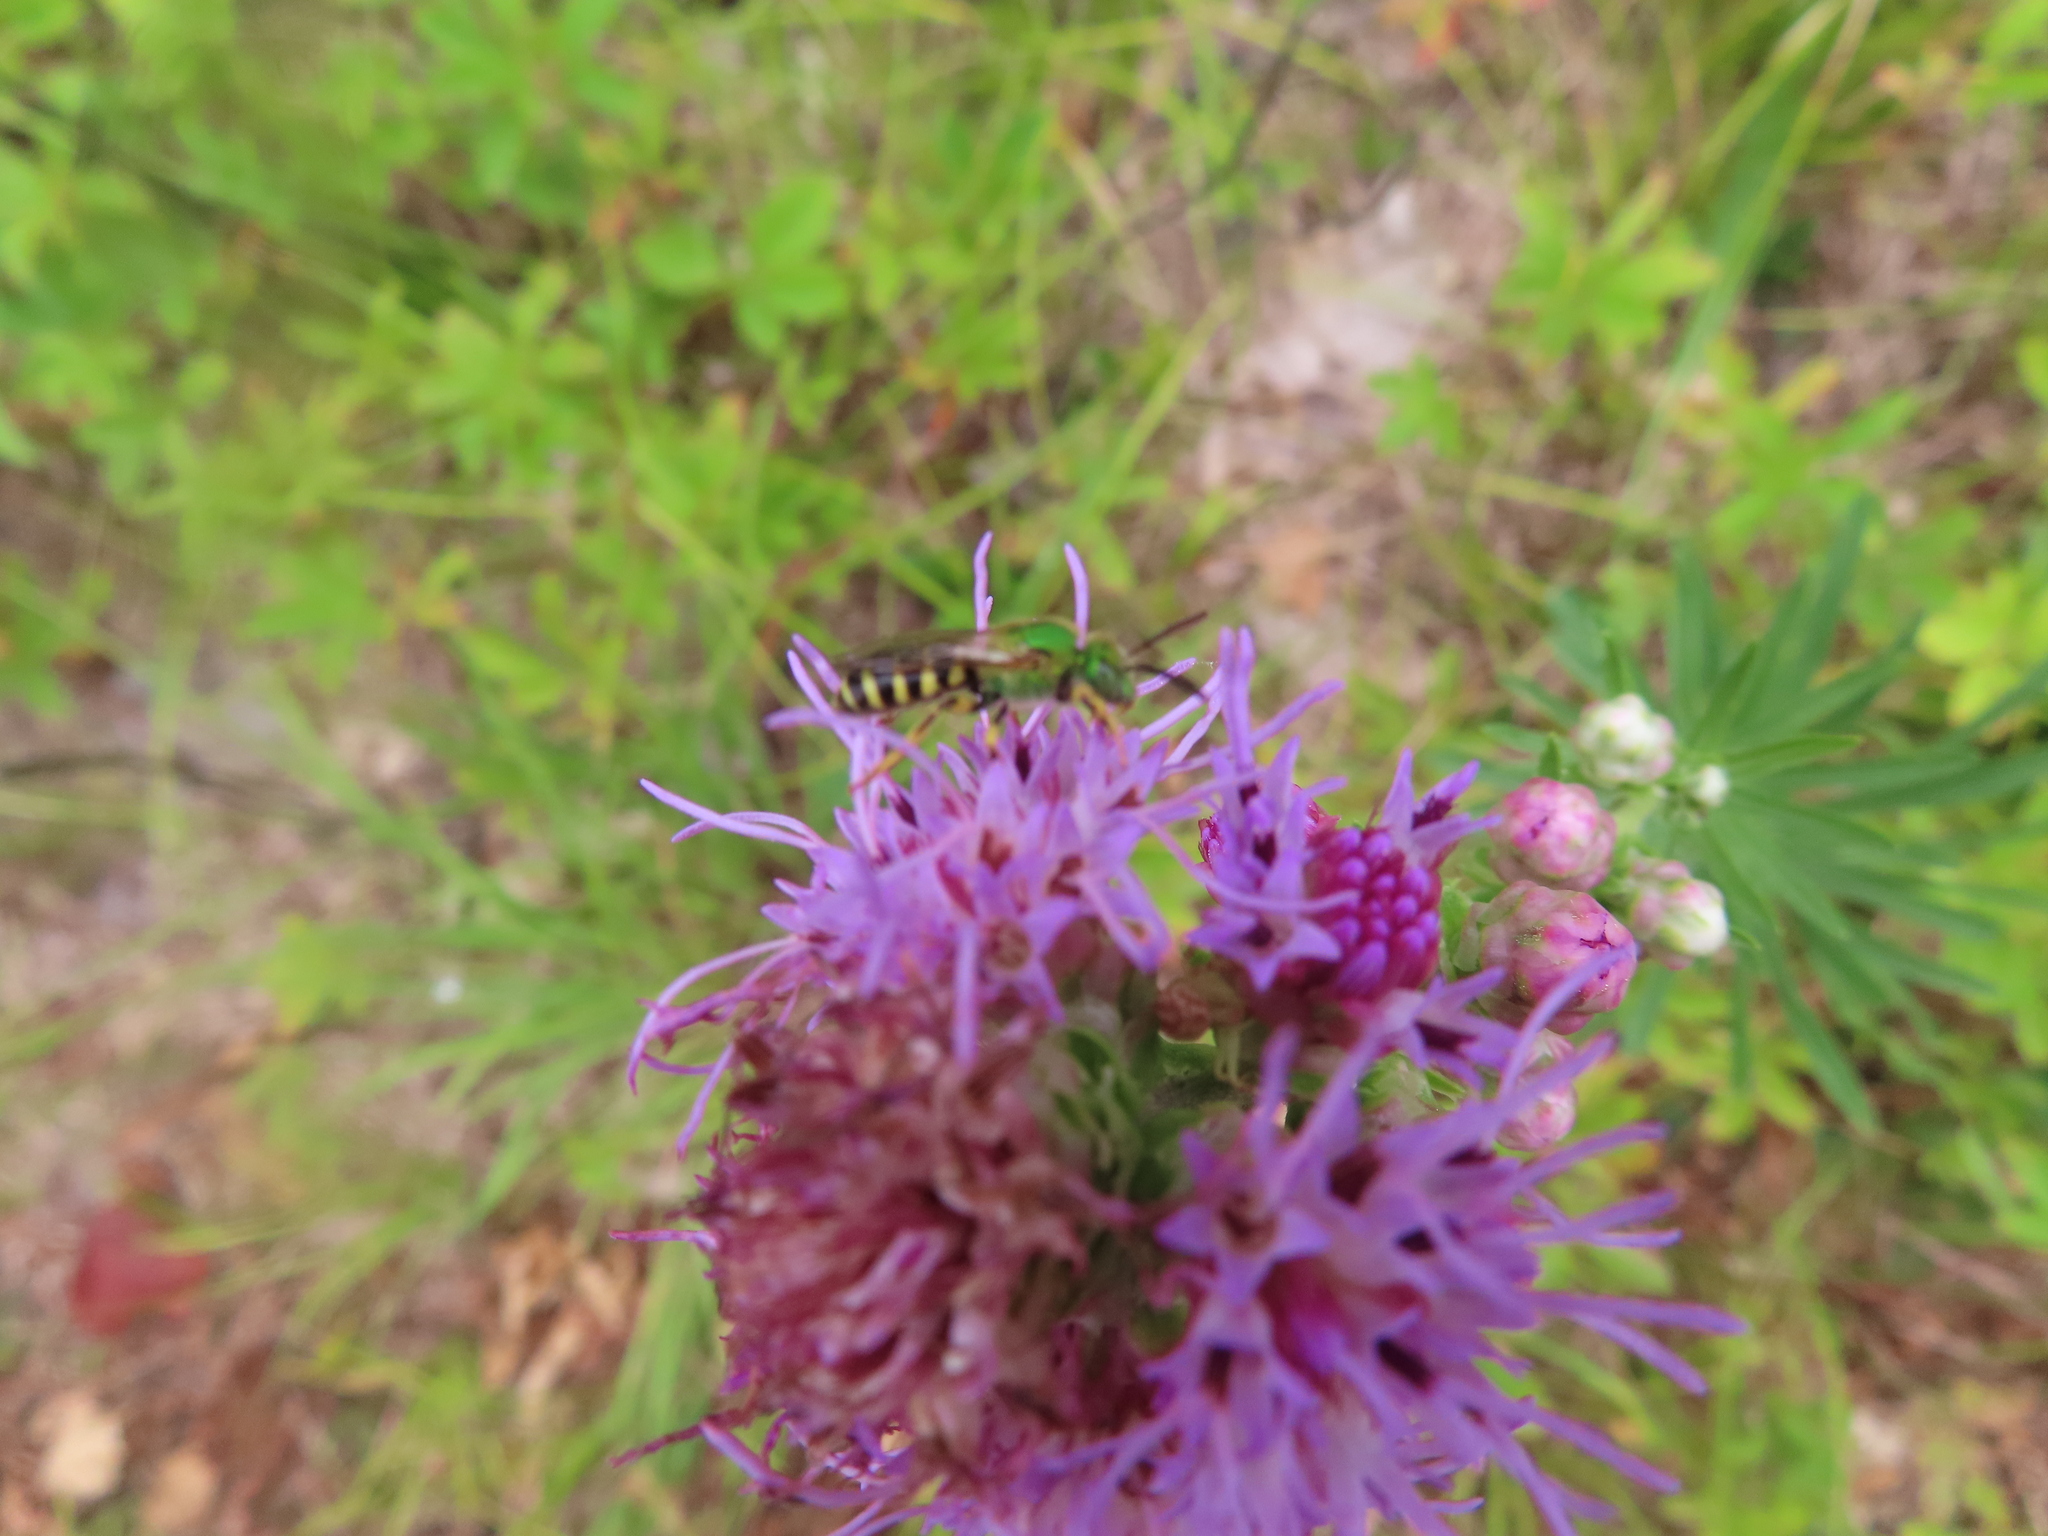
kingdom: Animalia
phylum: Arthropoda
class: Insecta
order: Hymenoptera
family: Halictidae
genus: Agapostemon
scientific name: Agapostemon virescens
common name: Bicolored striped sweat bee
